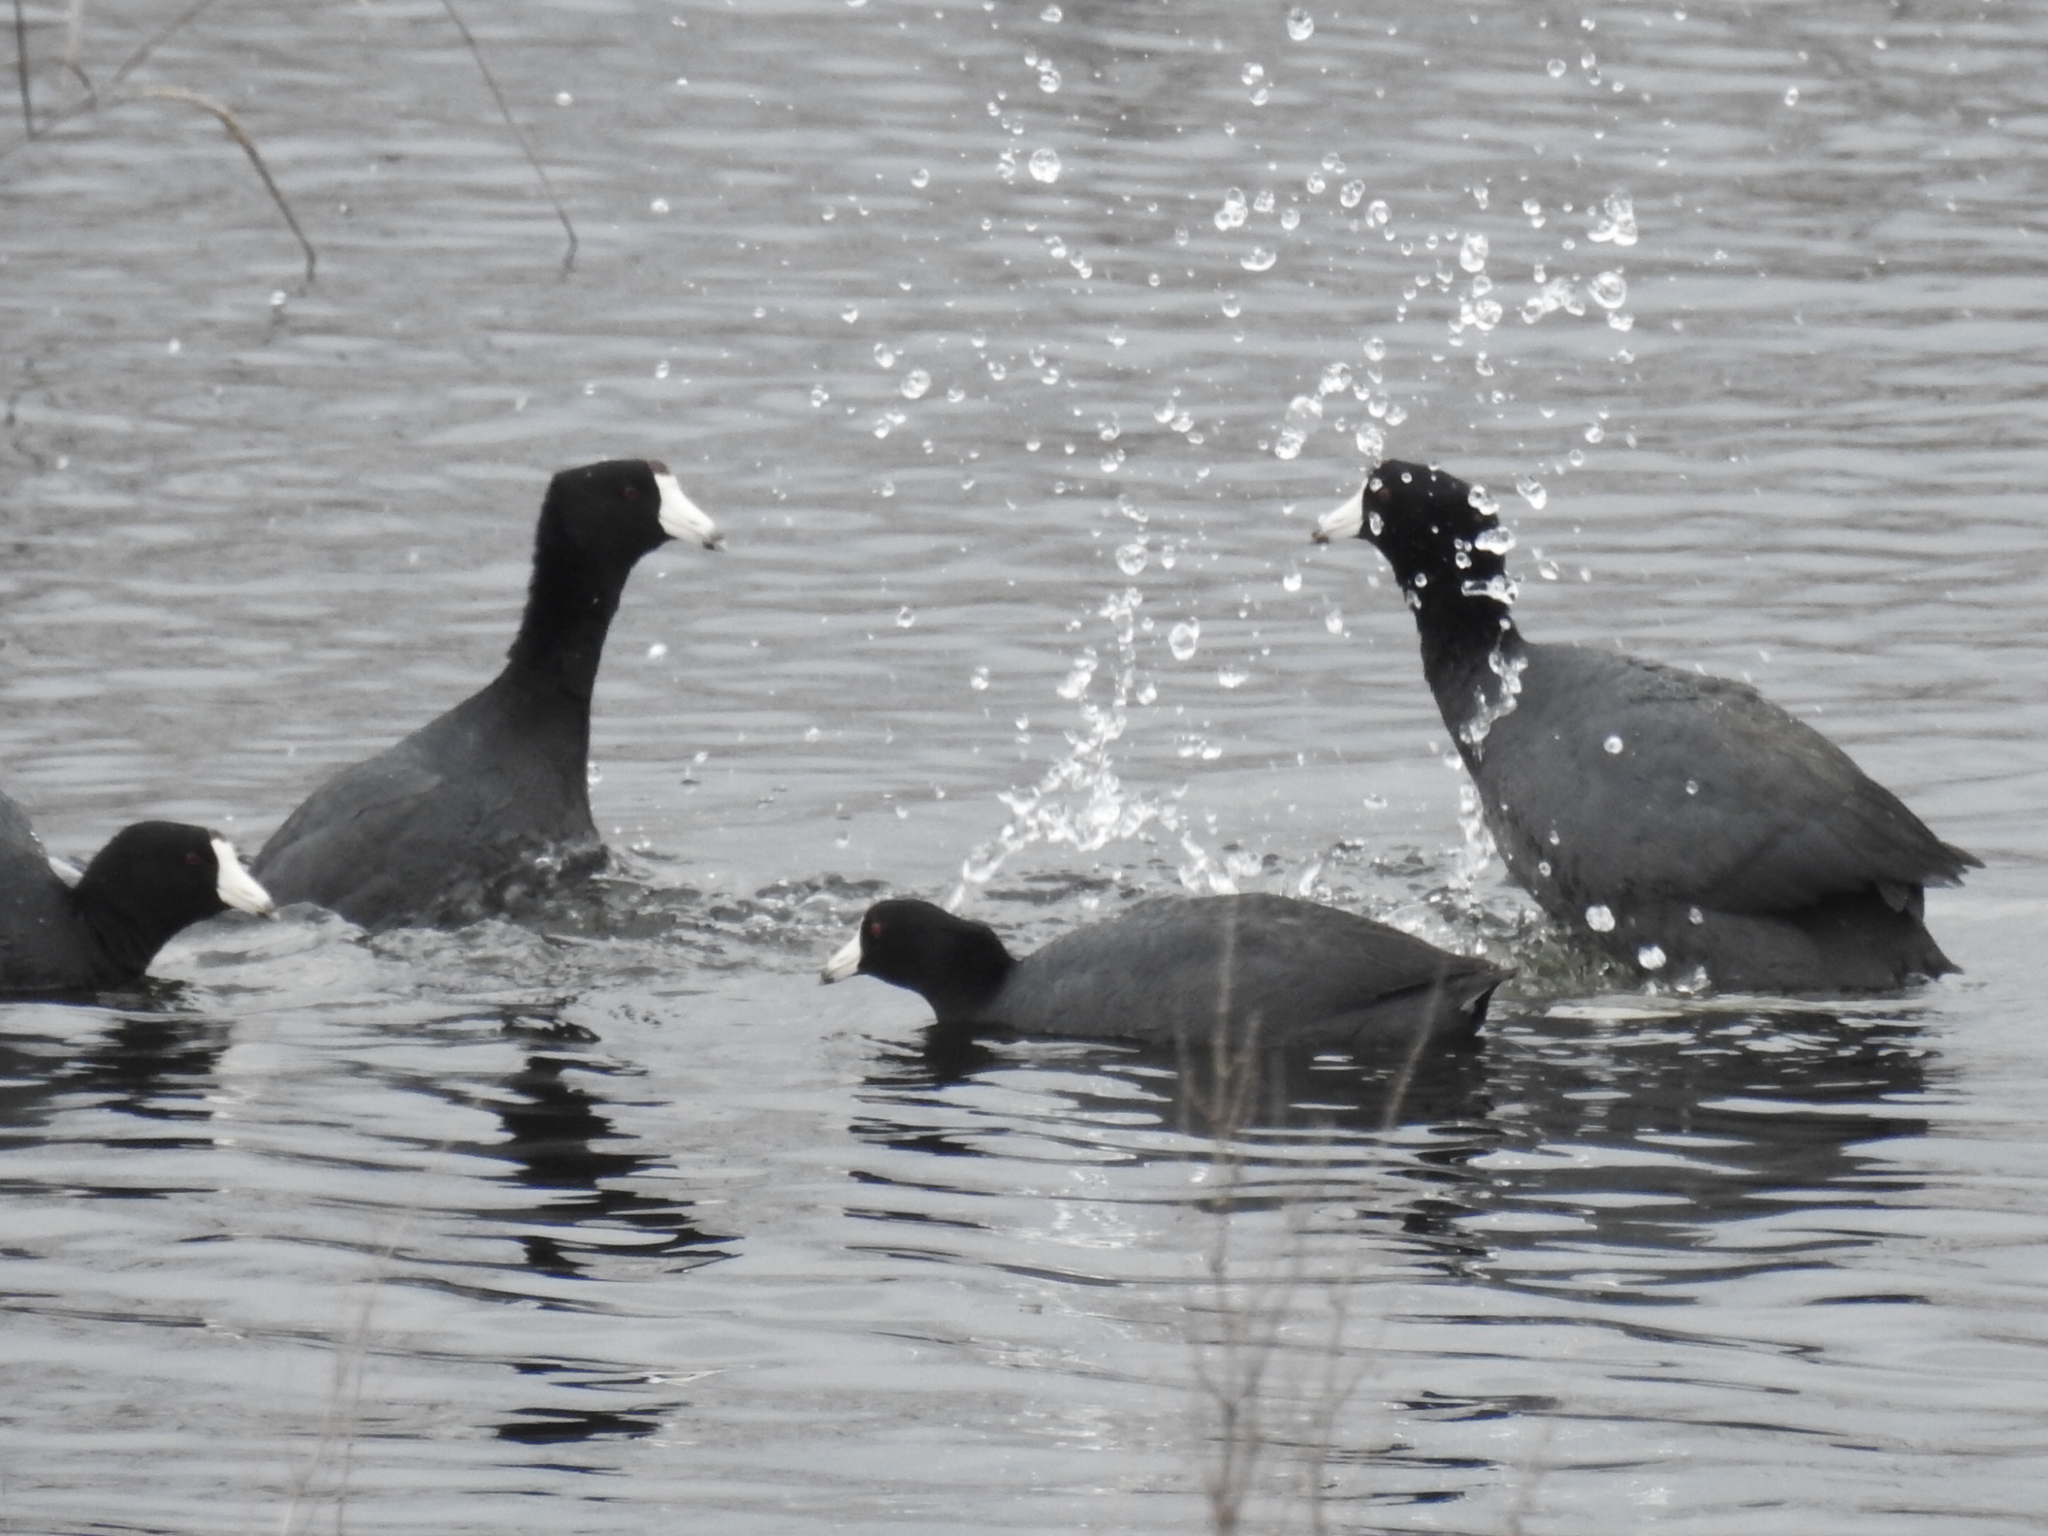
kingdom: Animalia
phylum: Chordata
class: Aves
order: Gruiformes
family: Rallidae
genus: Fulica
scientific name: Fulica americana
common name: American coot
